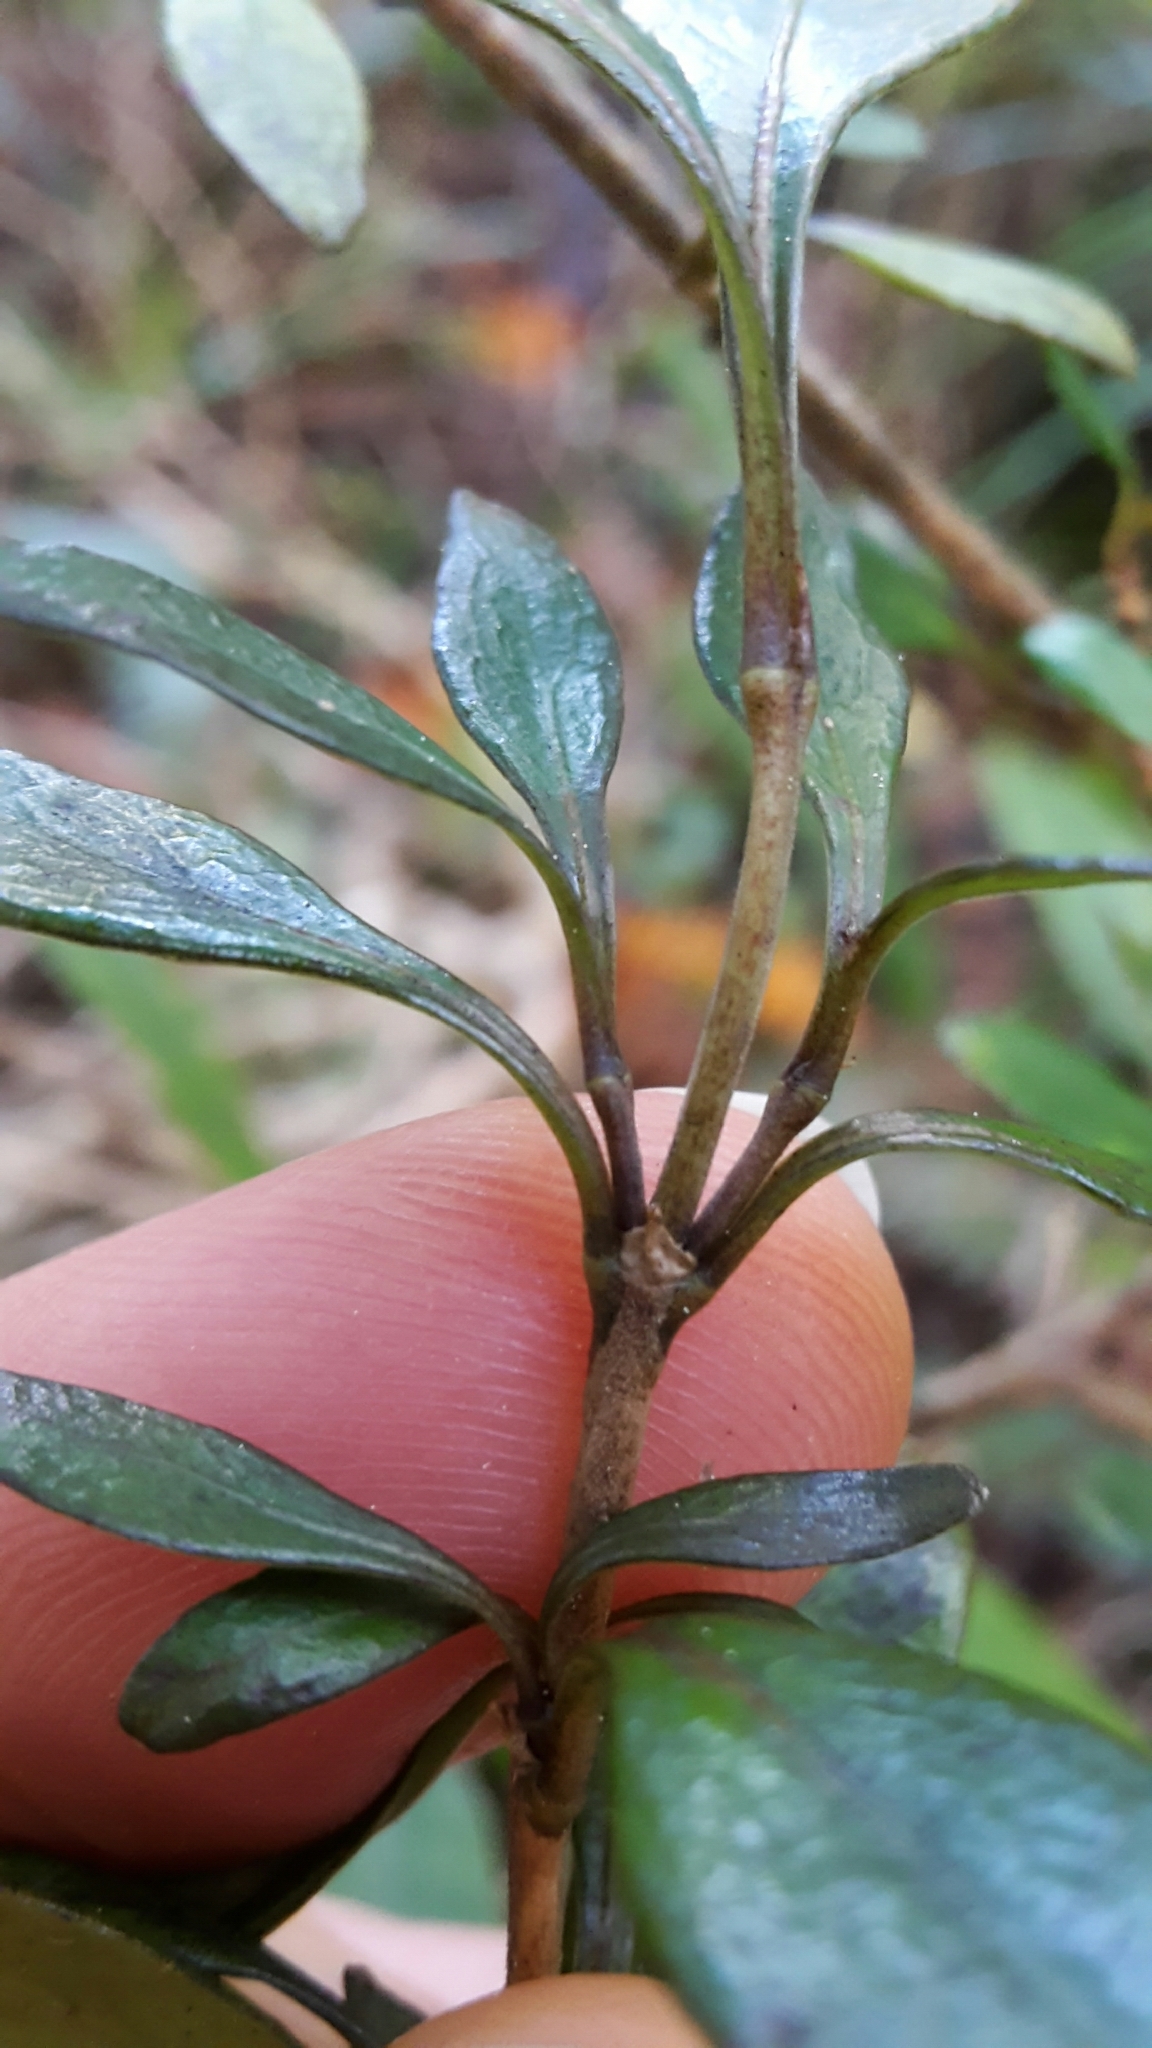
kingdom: Plantae
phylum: Tracheophyta
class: Magnoliopsida
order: Gentianales
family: Rubiaceae
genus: Coprosma
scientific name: Coprosma colensoi
